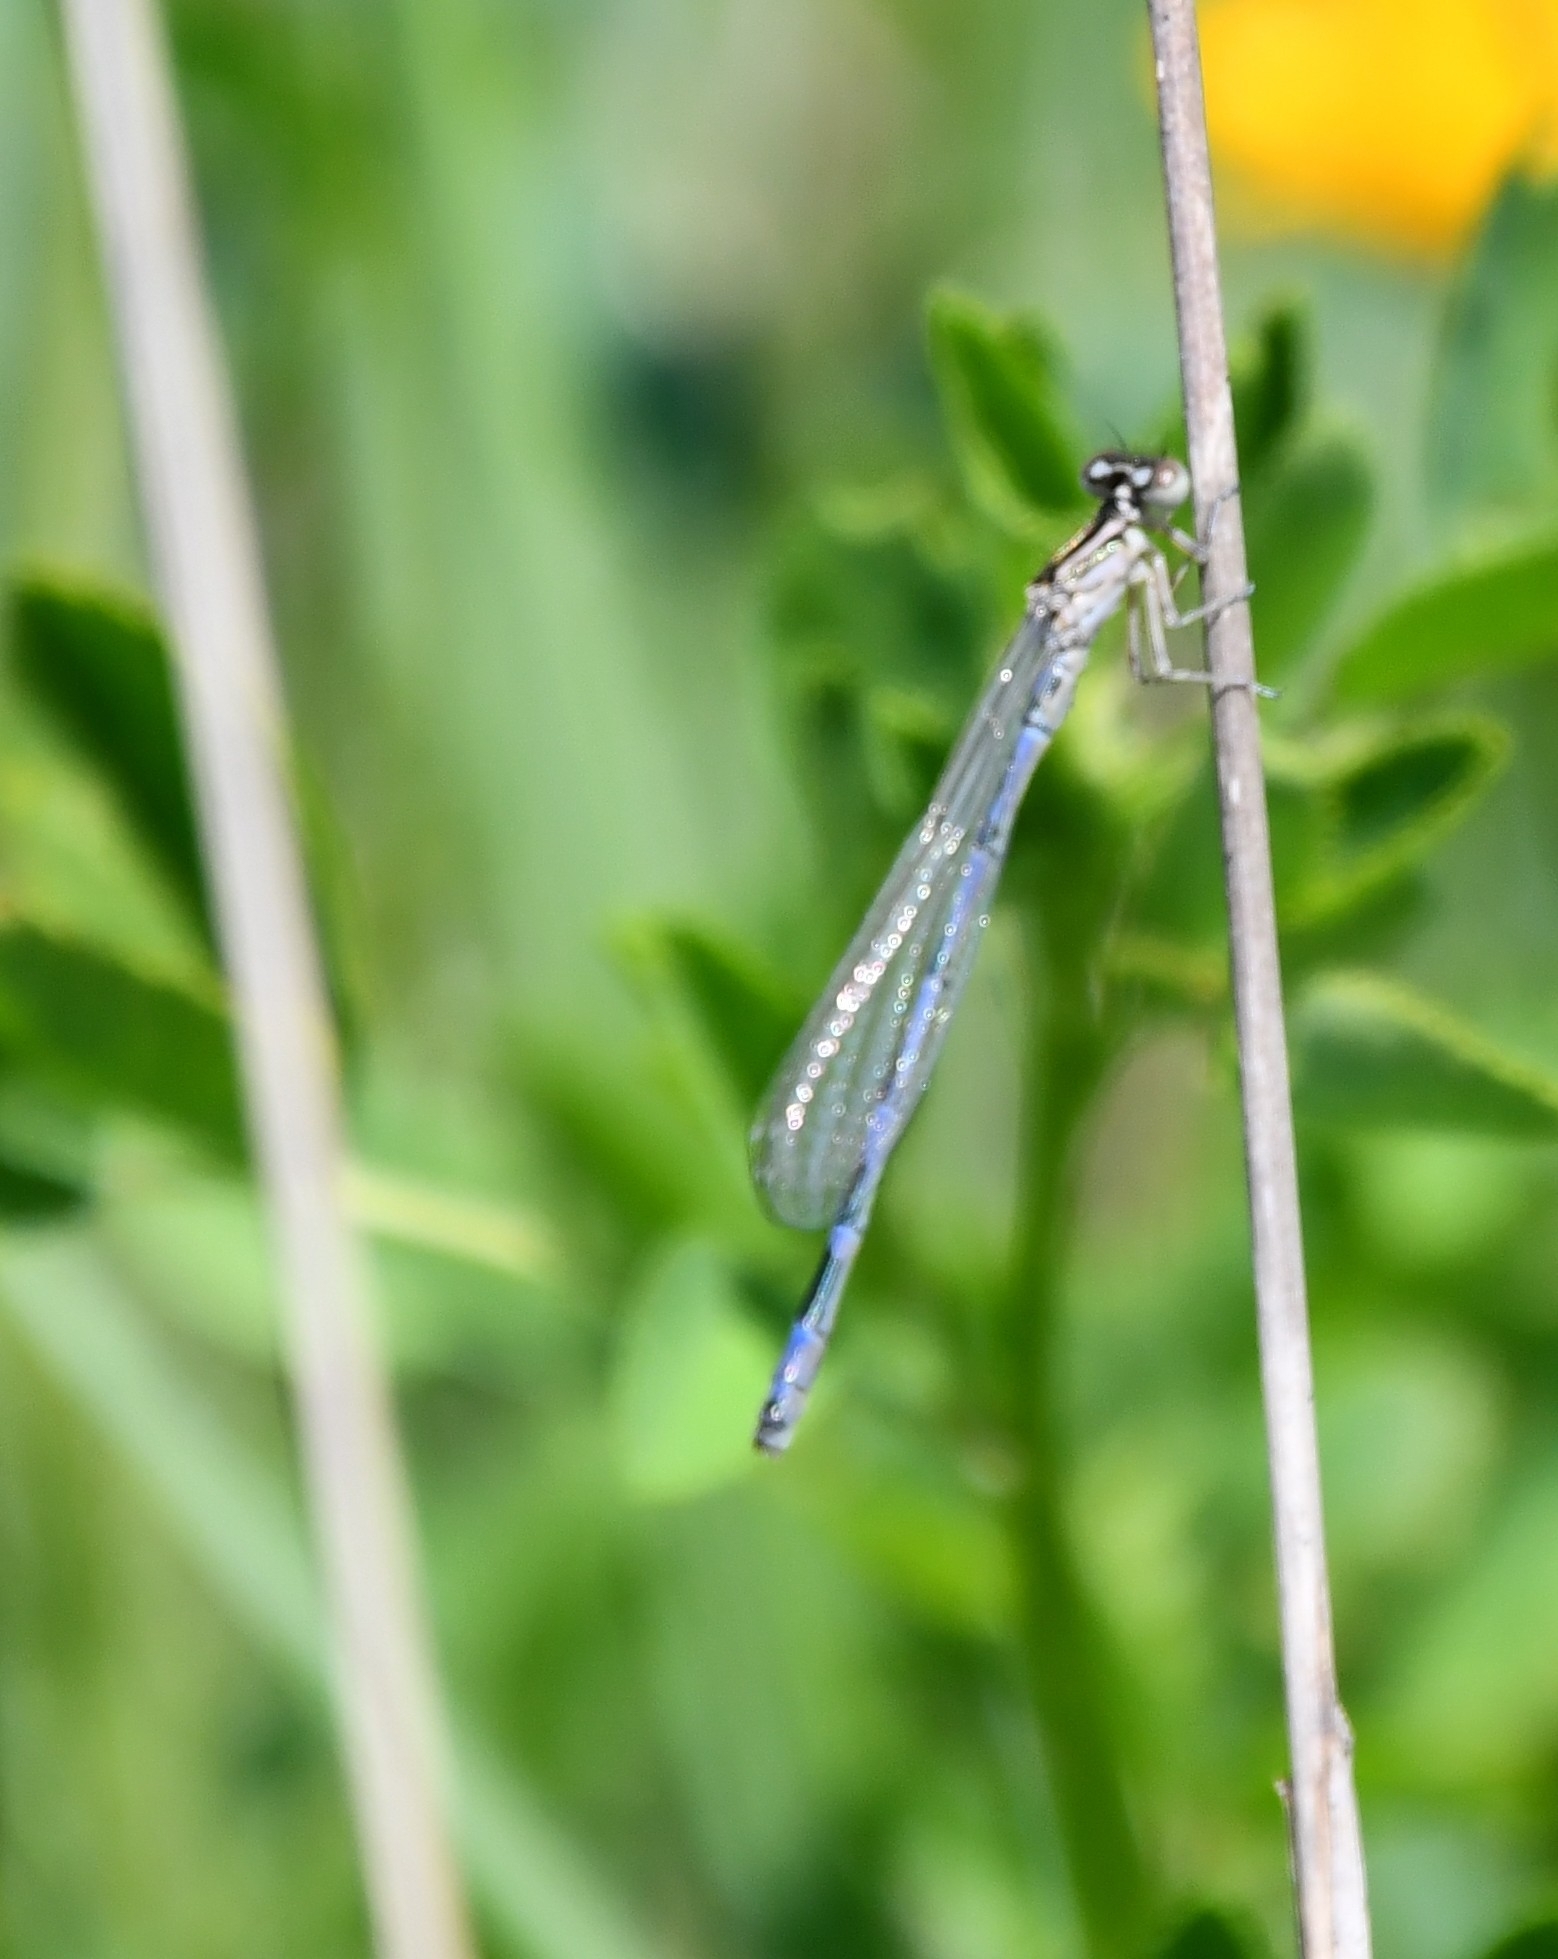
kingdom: Animalia
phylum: Arthropoda
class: Insecta
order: Odonata
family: Coenagrionidae
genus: Coenagrion
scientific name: Coenagrion ornatum
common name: Ornate bluet
